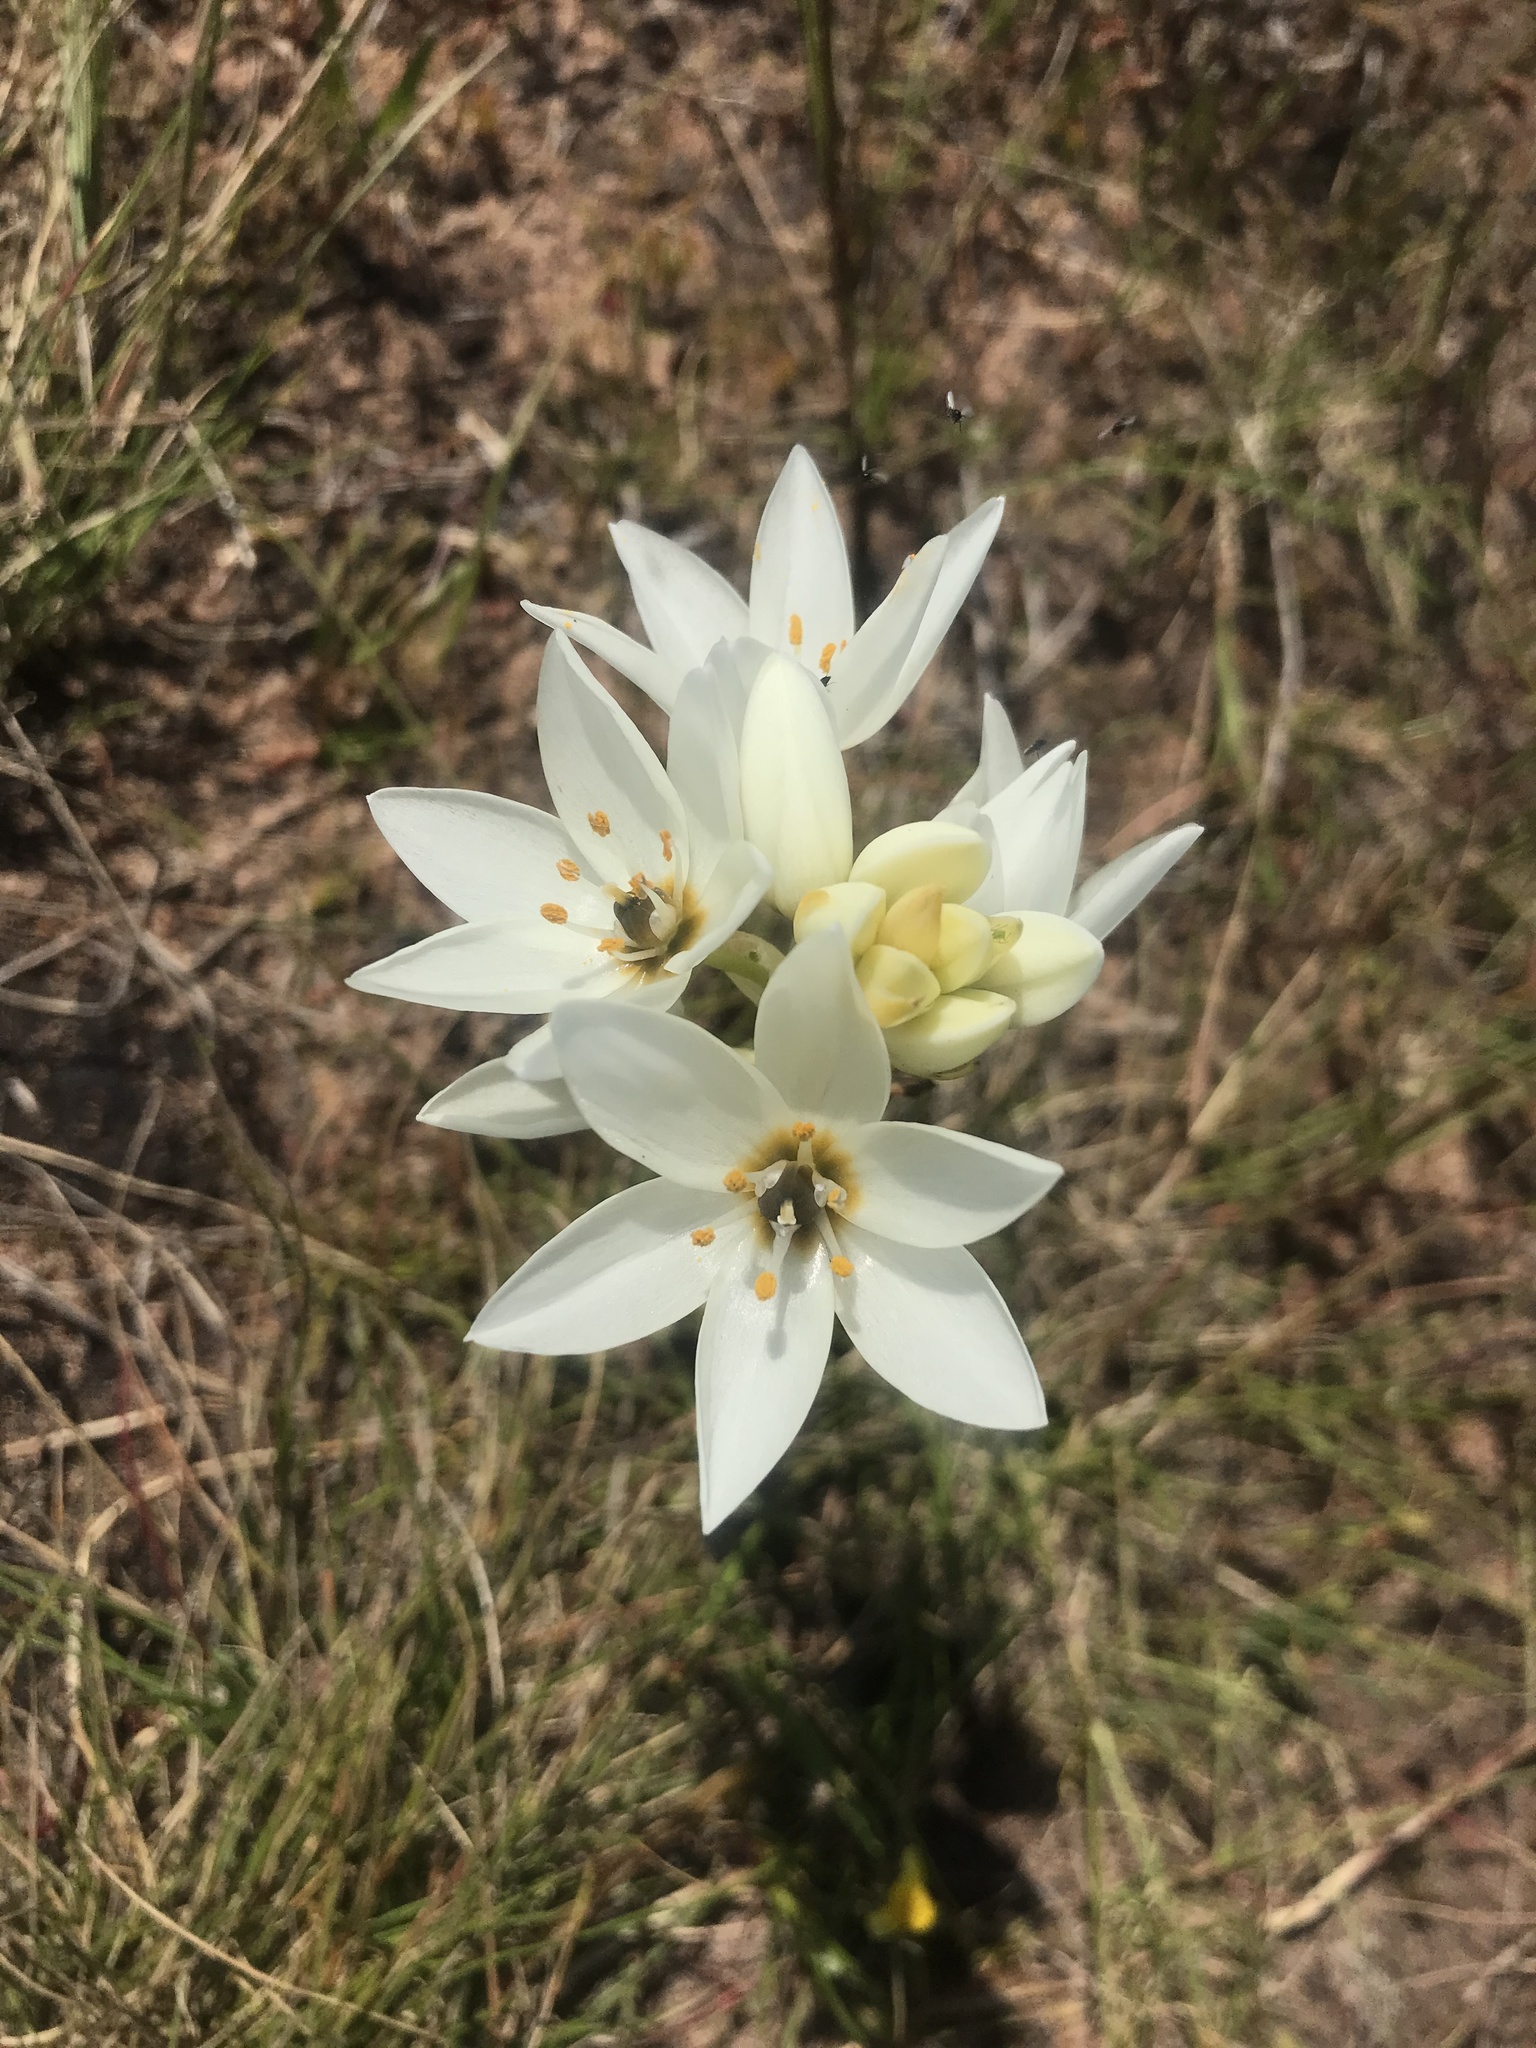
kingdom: Plantae
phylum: Tracheophyta
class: Liliopsida
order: Asparagales
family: Asparagaceae
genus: Ornithogalum
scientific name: Ornithogalum thyrsoides
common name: Chincherinchee
